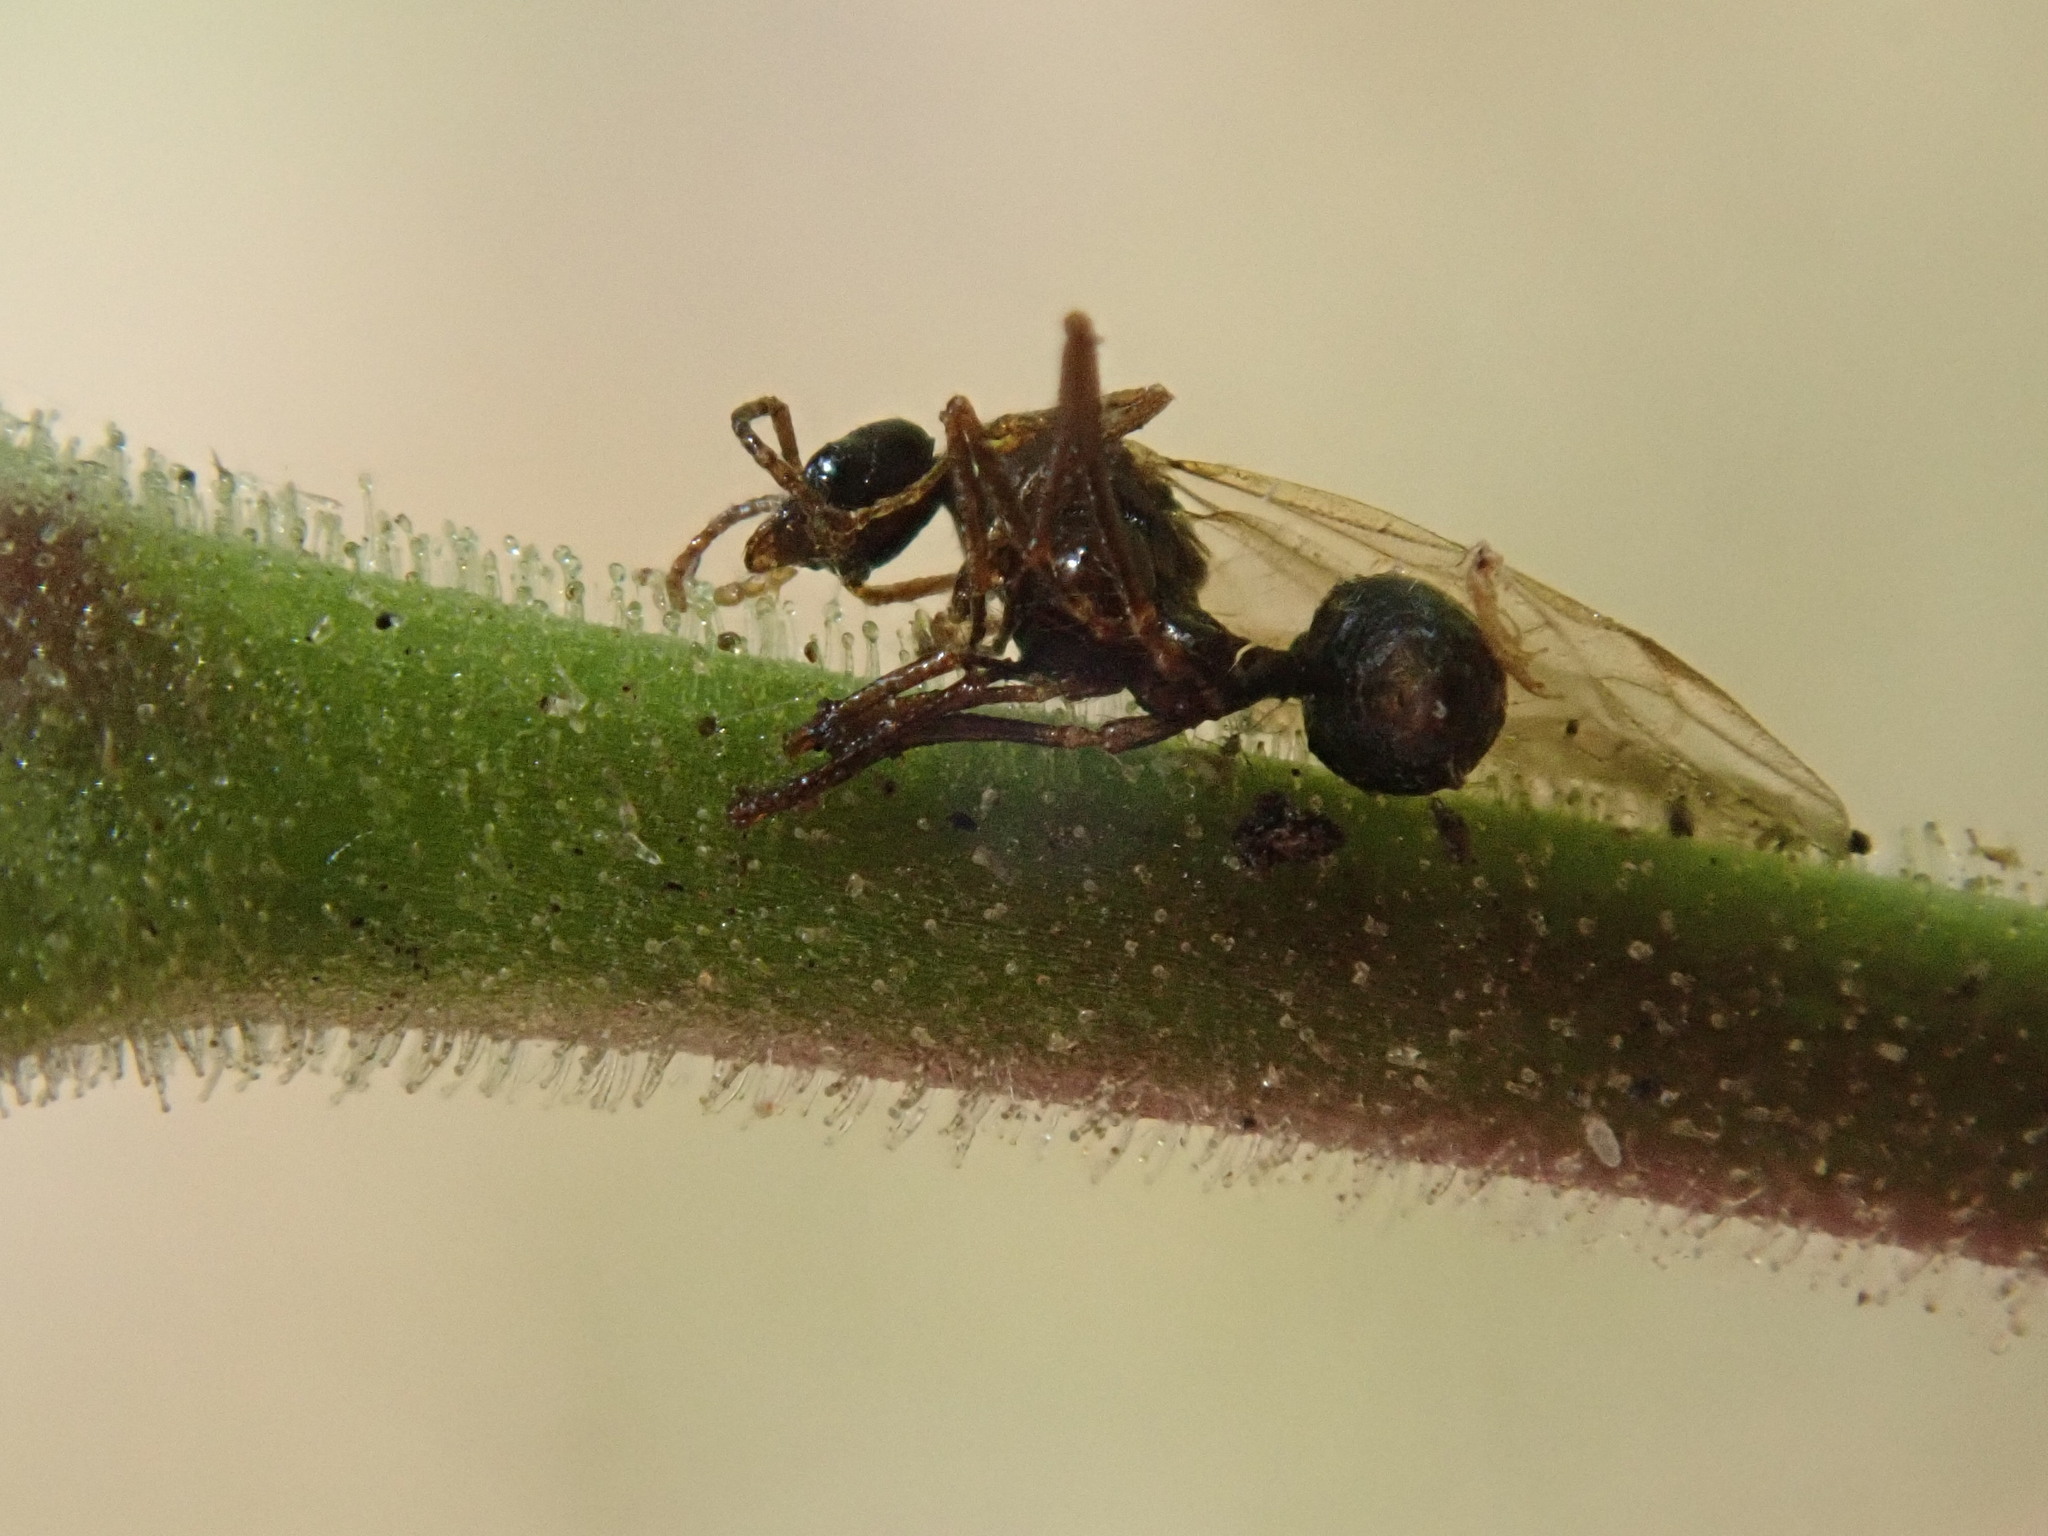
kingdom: Plantae
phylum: Tracheophyta
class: Magnoliopsida
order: Caryophyllales
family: Caryophyllaceae
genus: Silene
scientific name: Silene scouleri
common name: Scouler's campion
